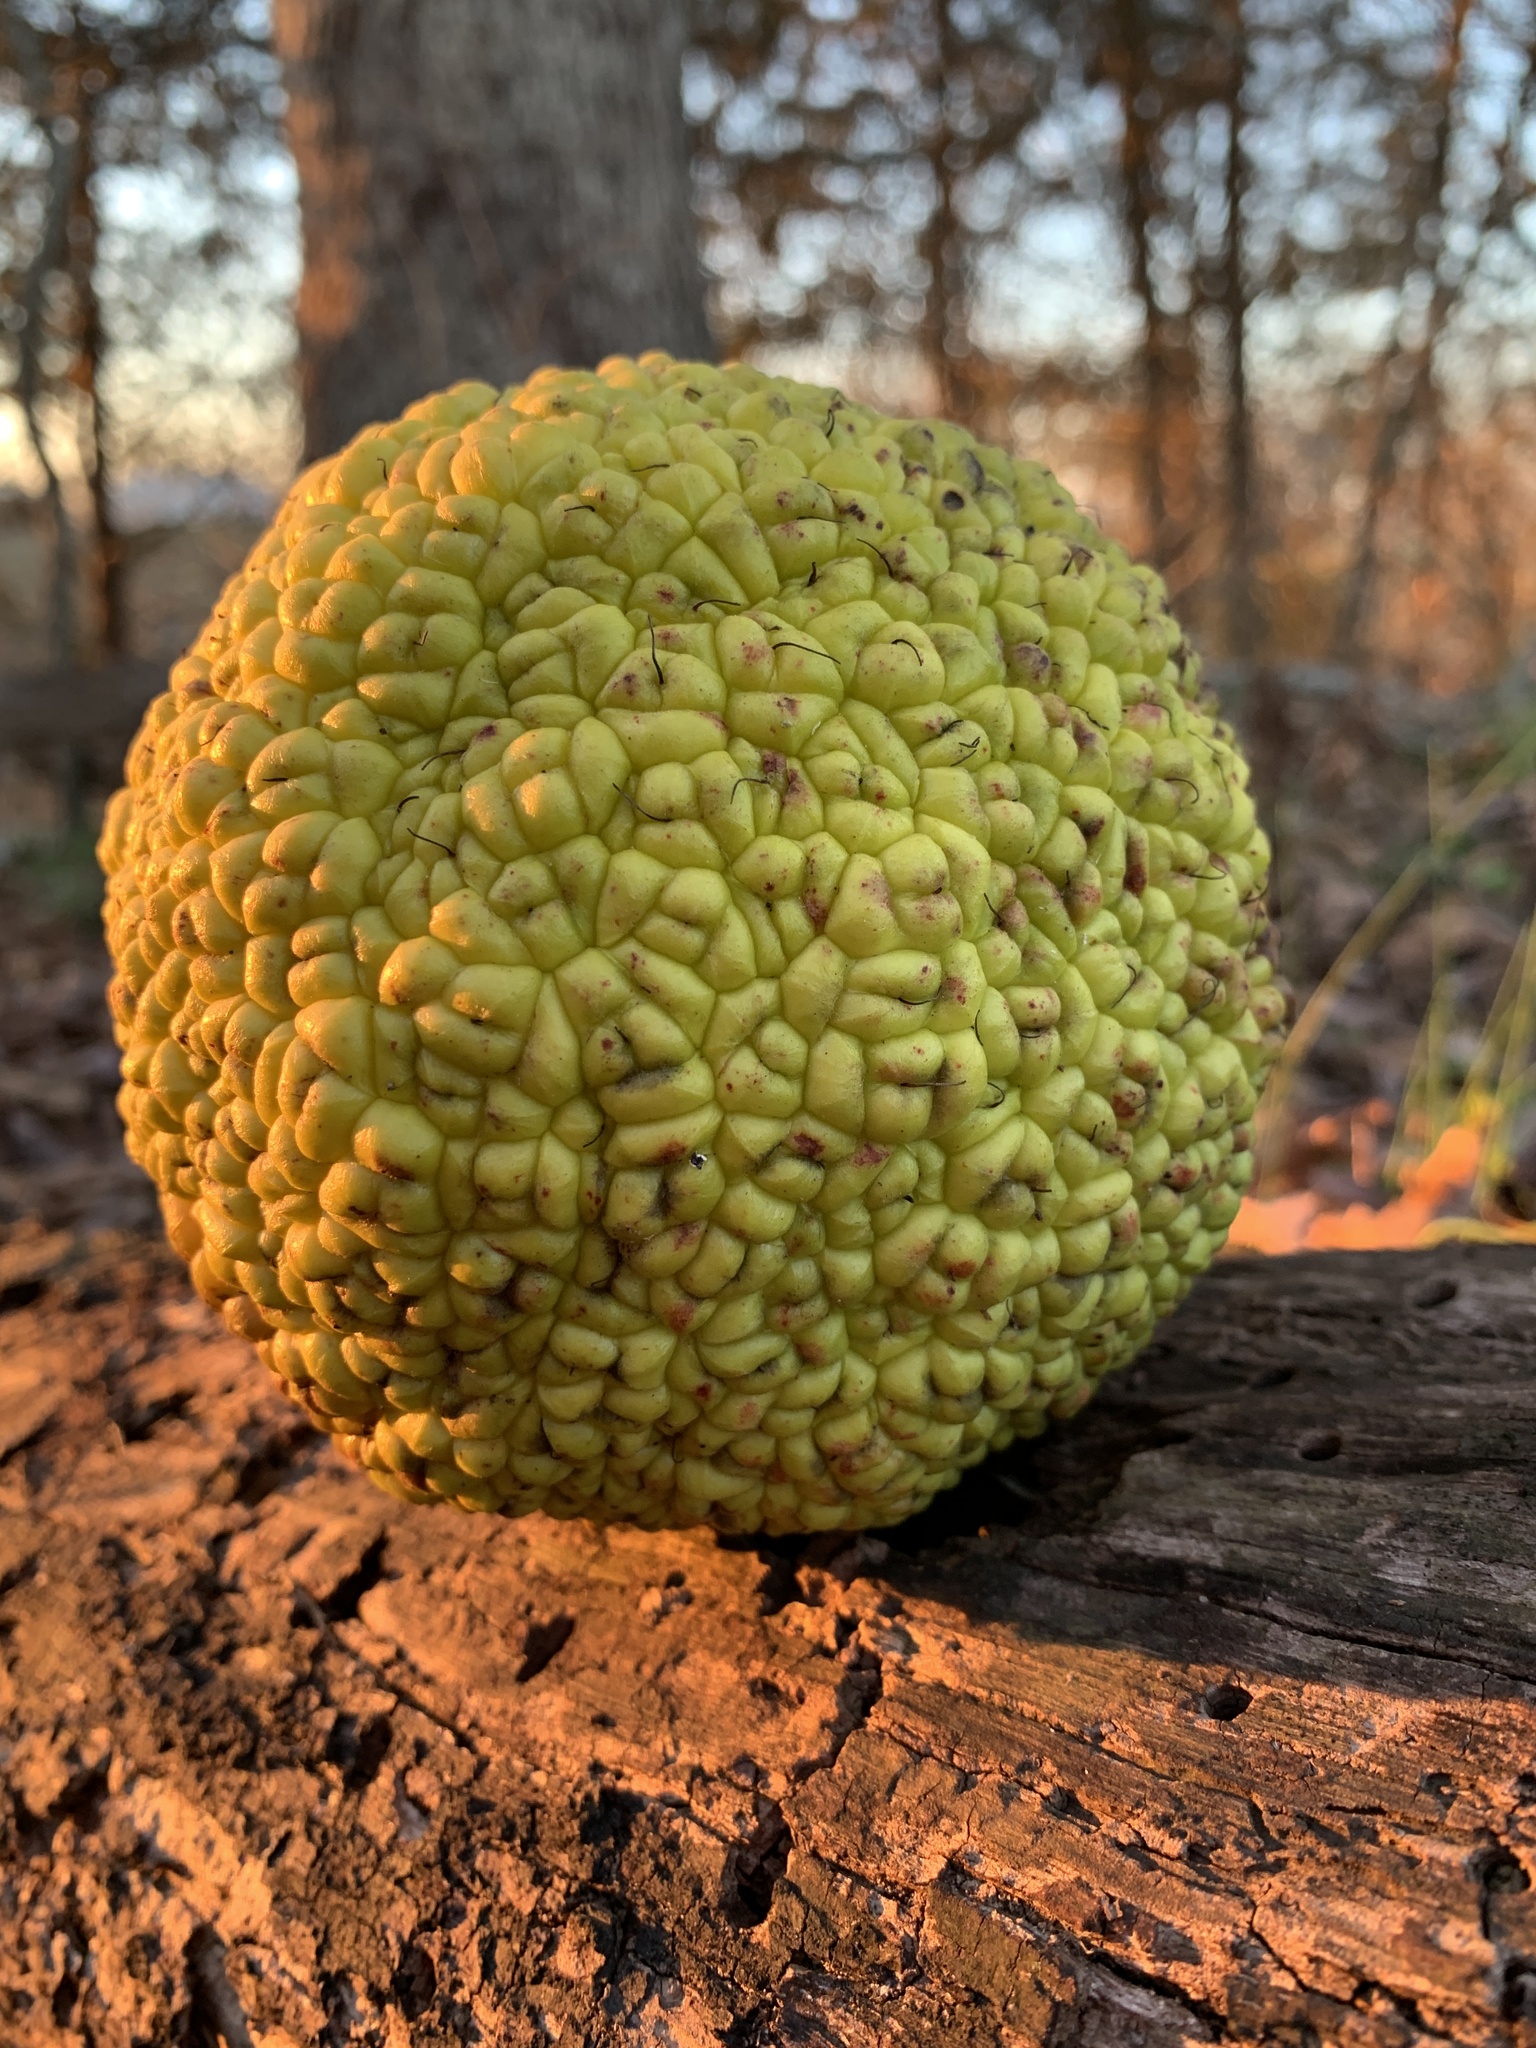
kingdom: Plantae
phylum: Tracheophyta
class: Magnoliopsida
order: Rosales
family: Moraceae
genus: Maclura
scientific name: Maclura pomifera
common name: Osage-orange
